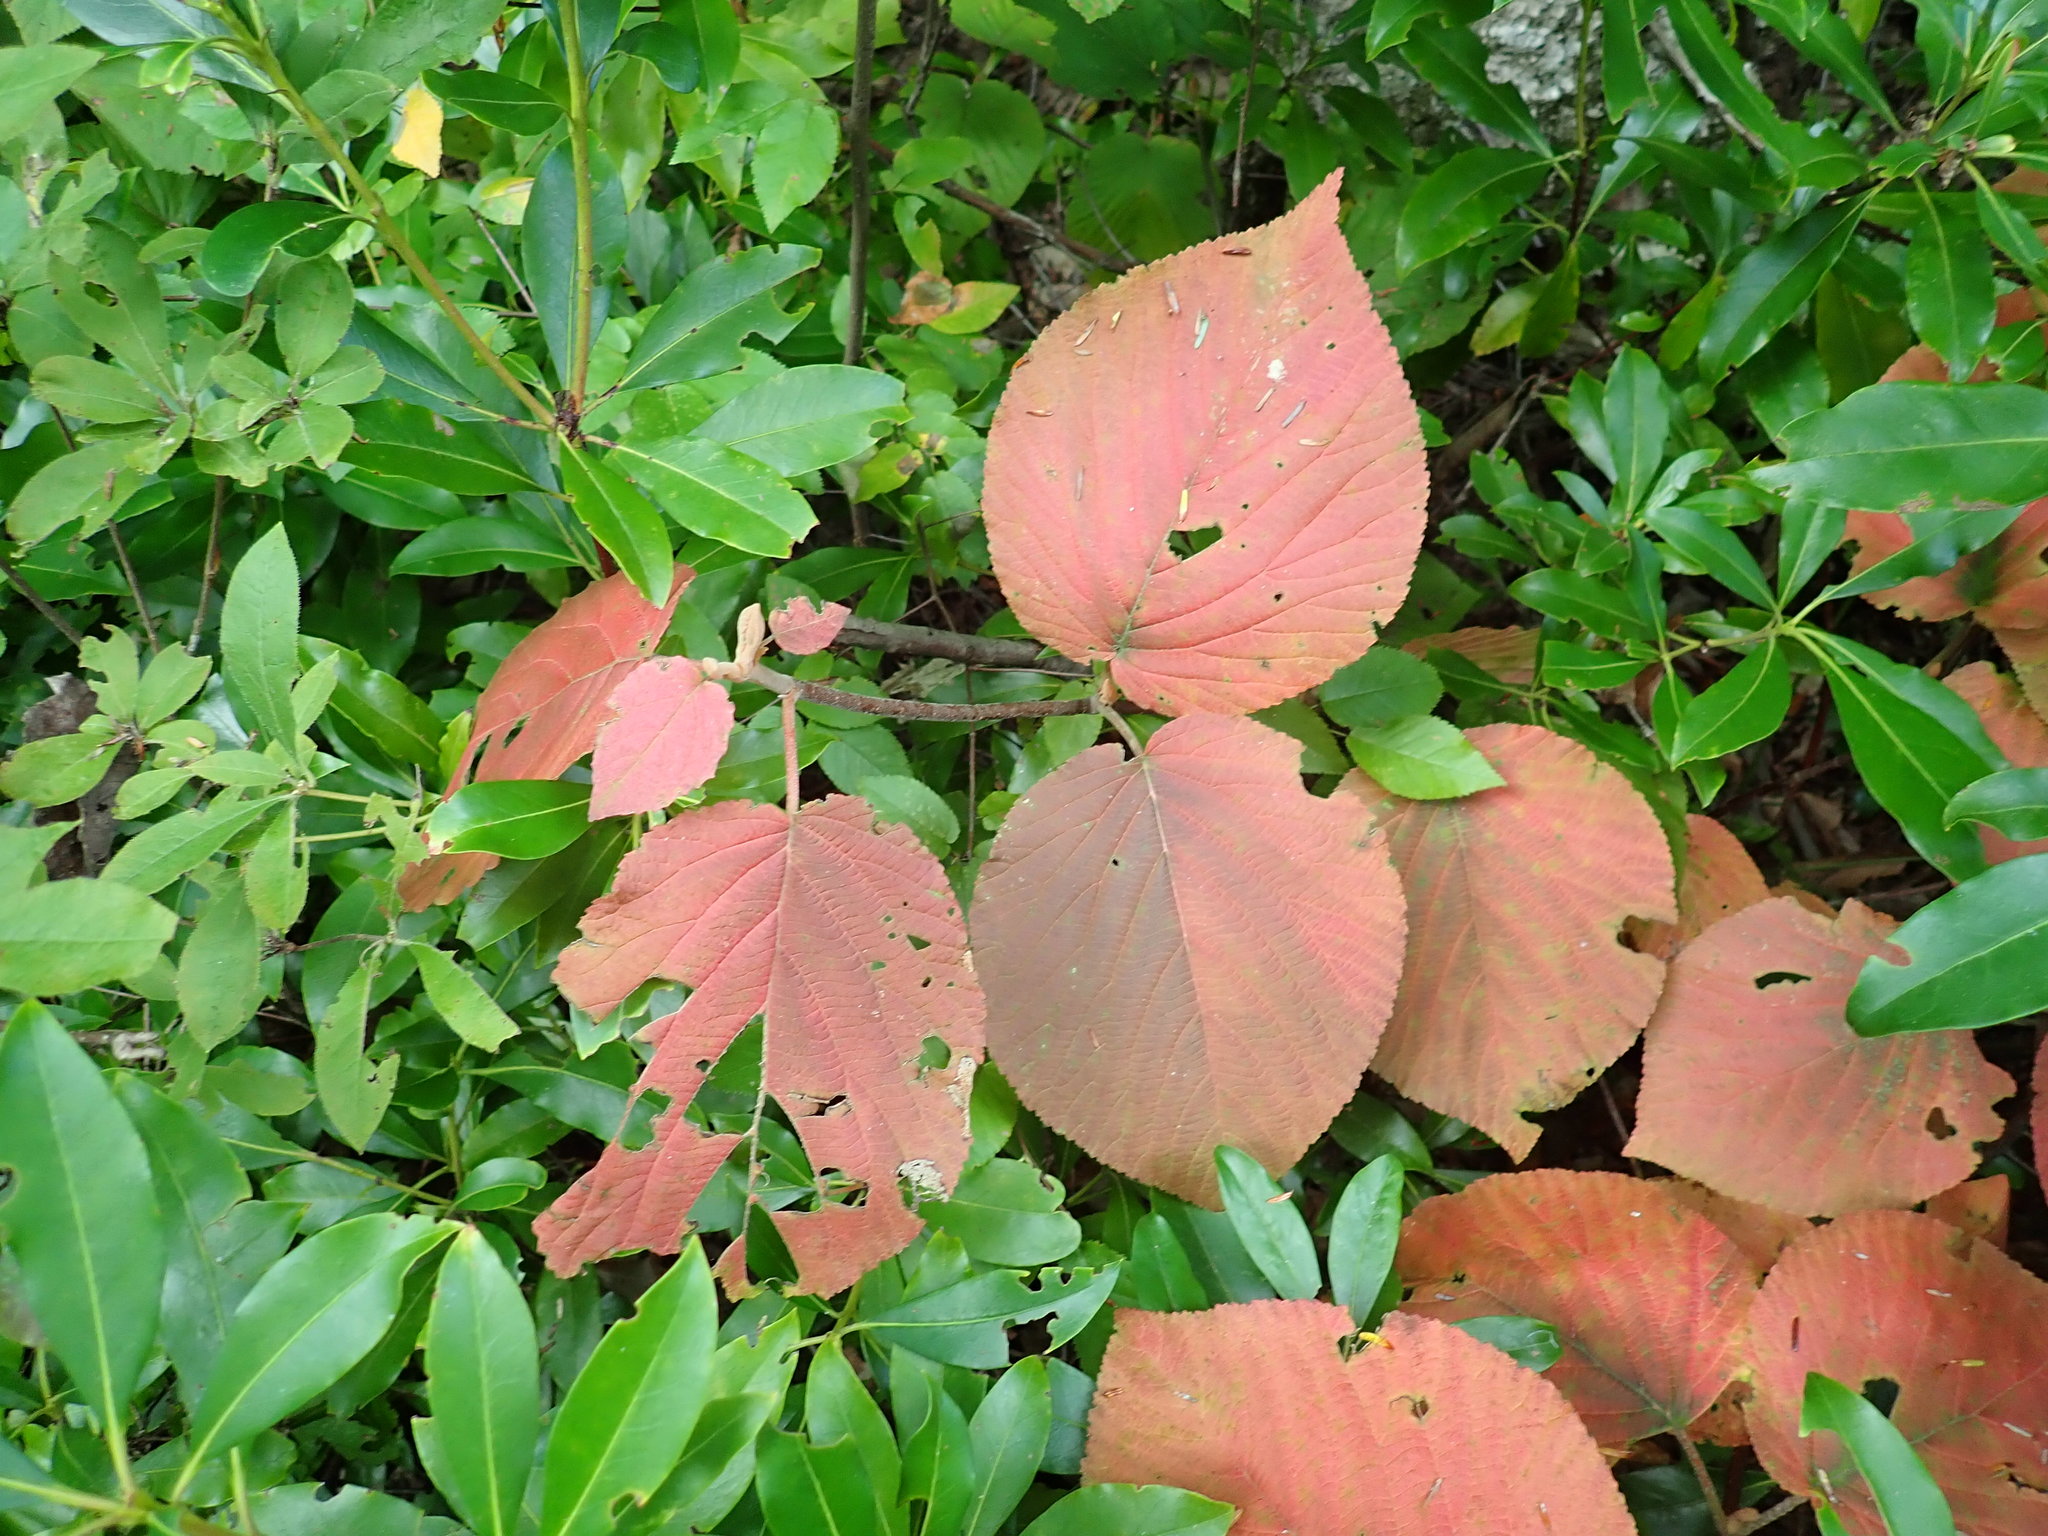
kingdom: Plantae
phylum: Tracheophyta
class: Magnoliopsida
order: Dipsacales
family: Viburnaceae
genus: Viburnum
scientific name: Viburnum lantanoides
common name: Hobblebush
